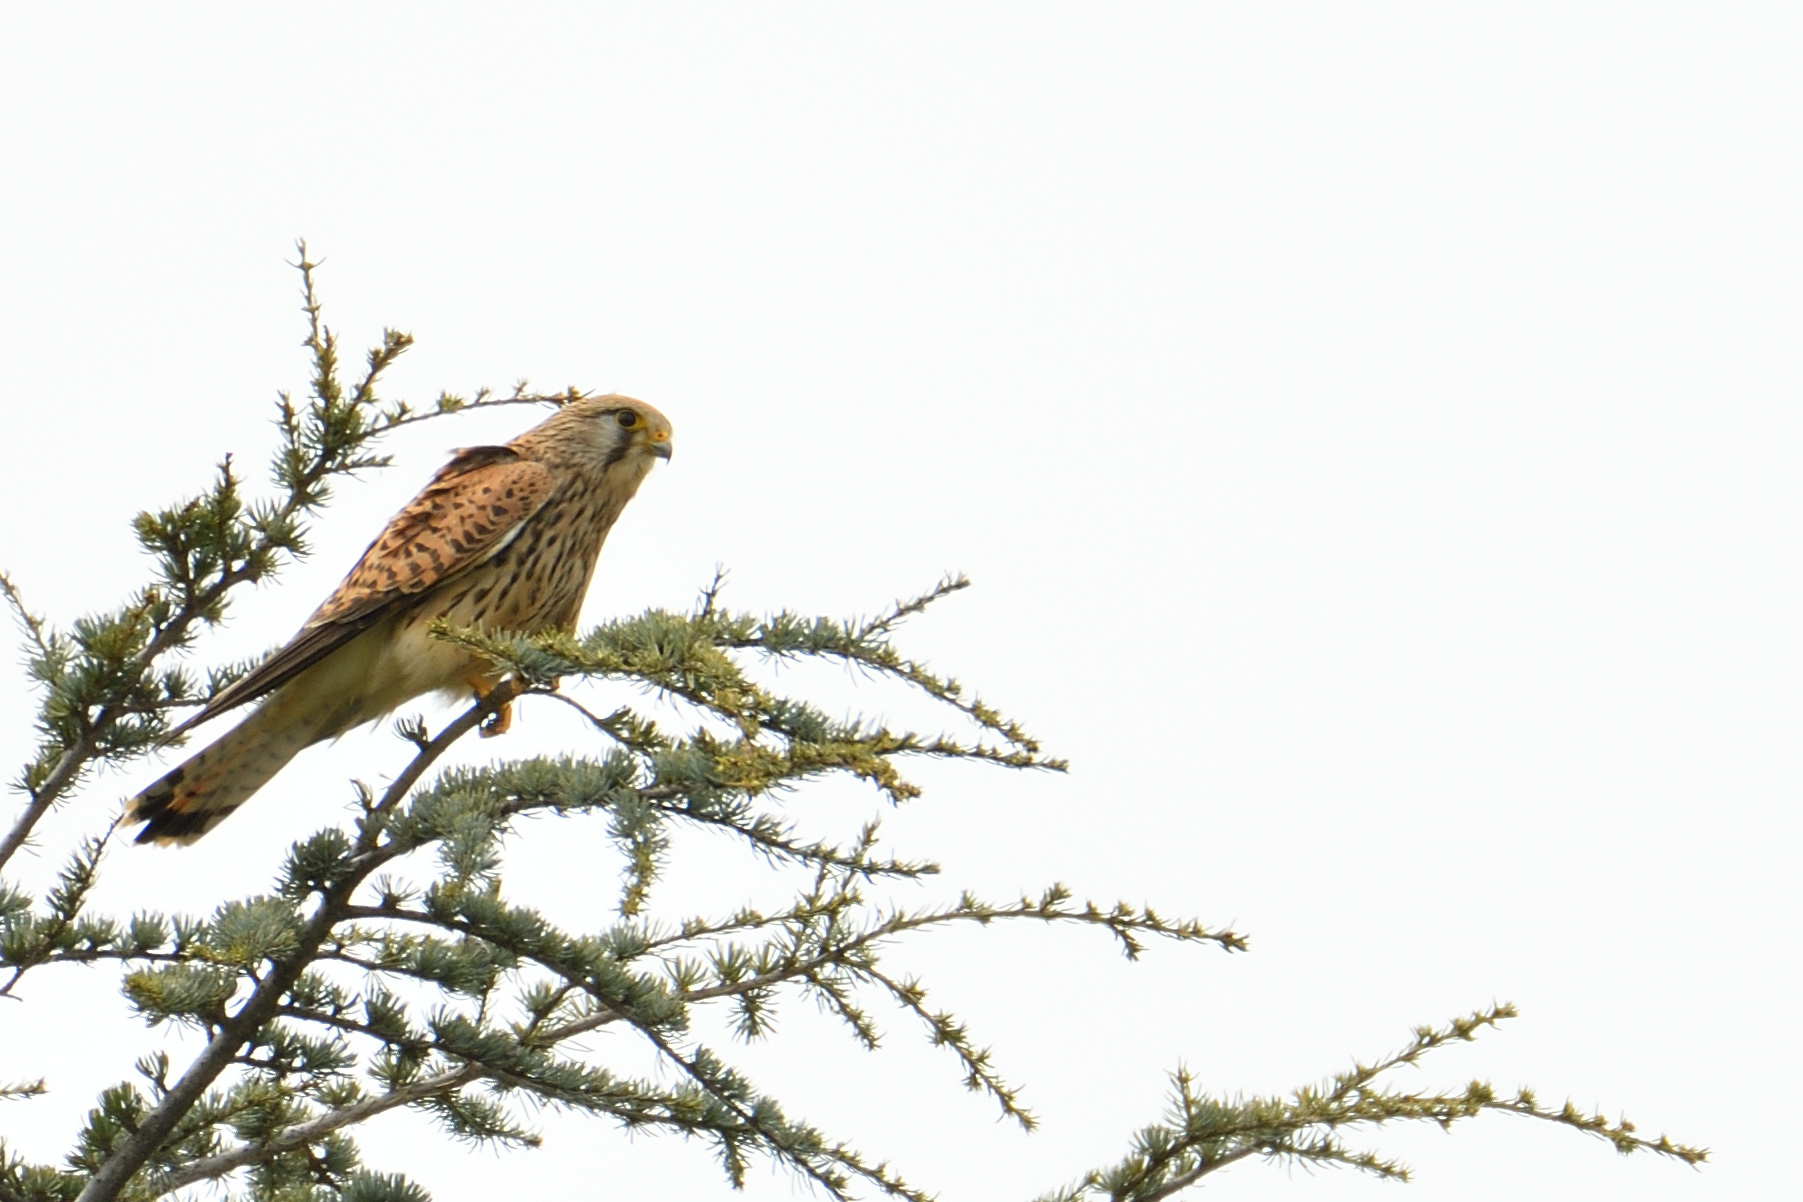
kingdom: Animalia
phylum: Chordata
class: Aves
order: Falconiformes
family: Falconidae
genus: Falco
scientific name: Falco tinnunculus
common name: Common kestrel
